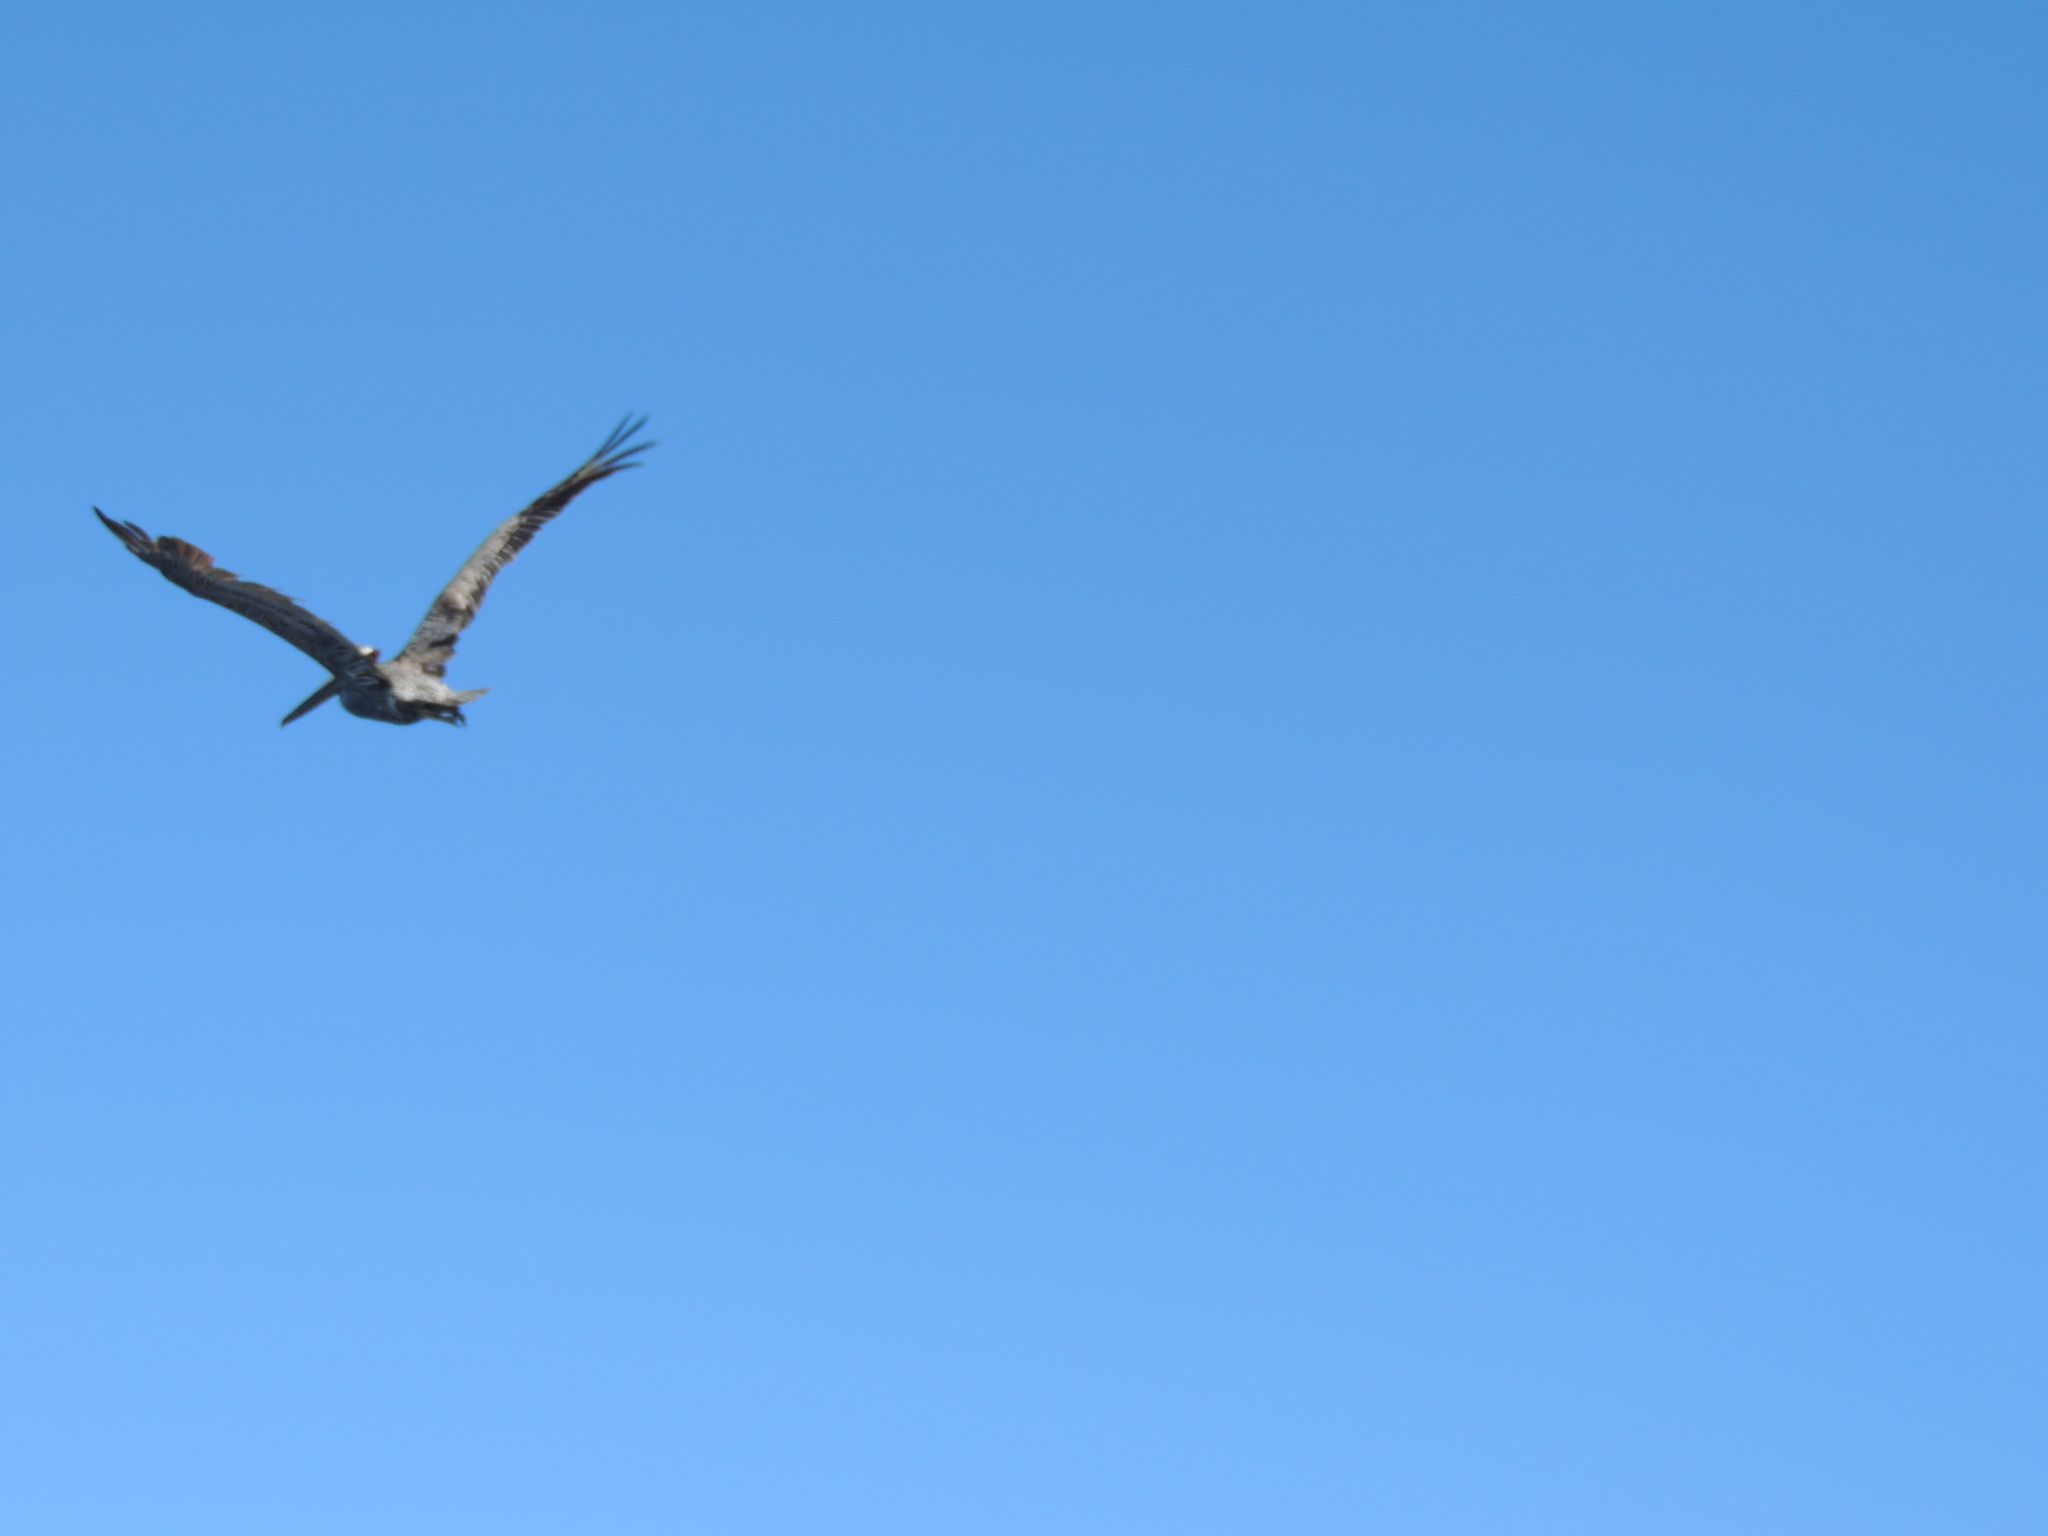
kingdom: Animalia
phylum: Chordata
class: Aves
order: Pelecaniformes
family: Pelecanidae
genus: Pelecanus
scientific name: Pelecanus occidentalis
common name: Brown pelican
